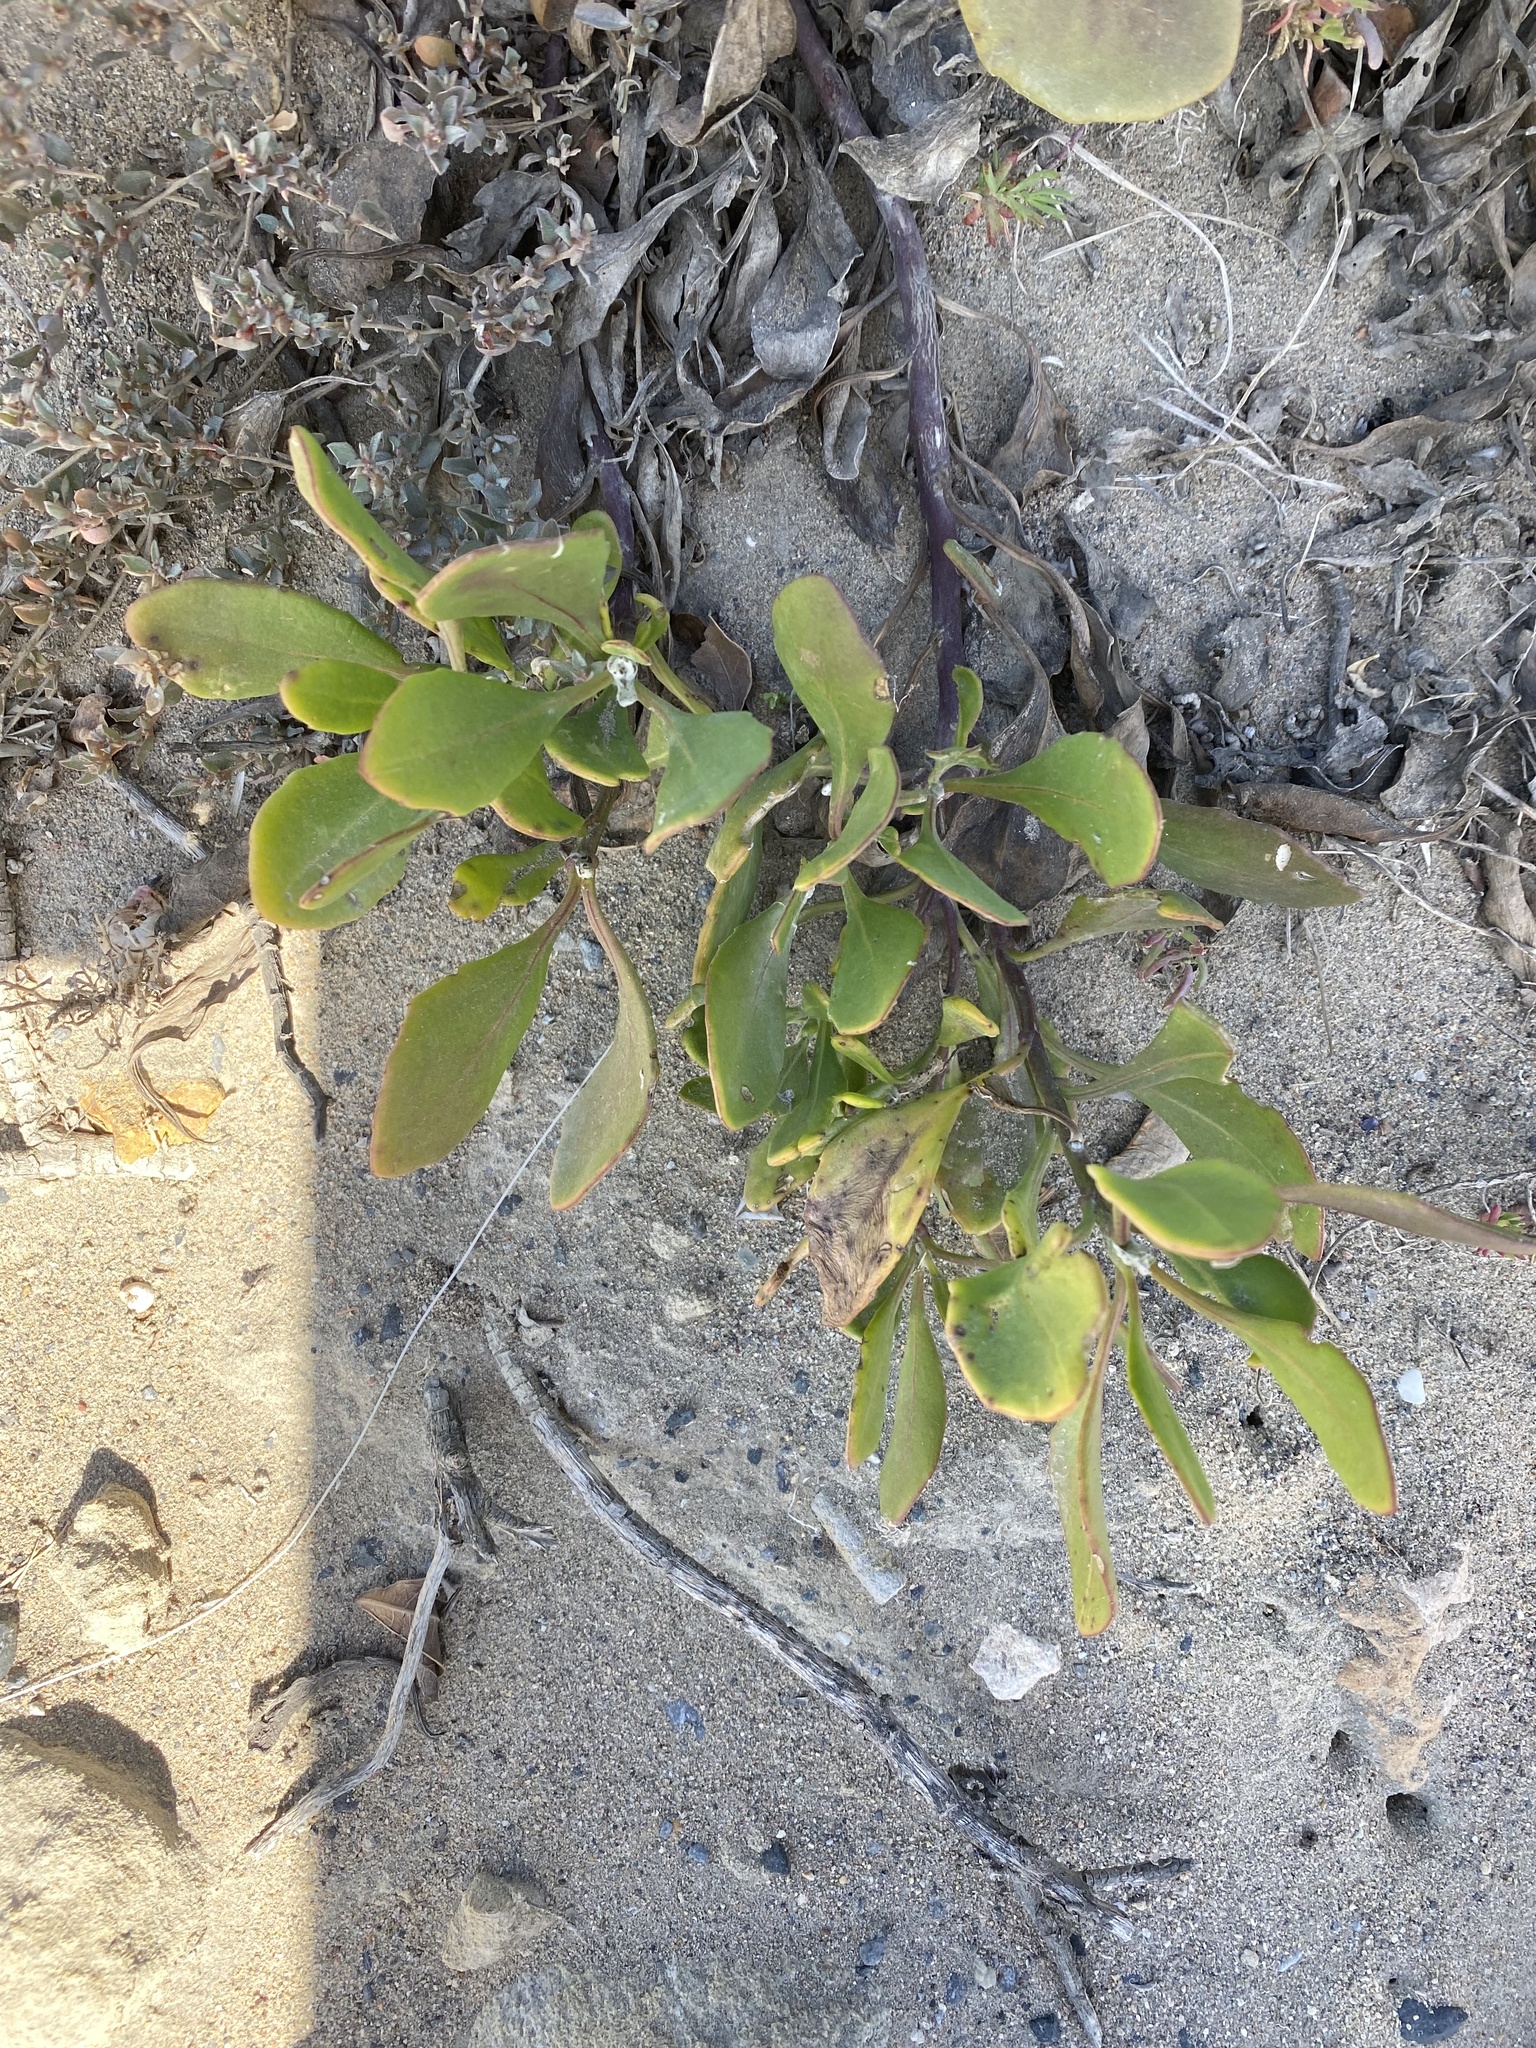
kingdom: Plantae
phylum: Tracheophyta
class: Magnoliopsida
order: Asterales
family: Asteraceae
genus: Osteospermum
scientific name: Osteospermum moniliferum
